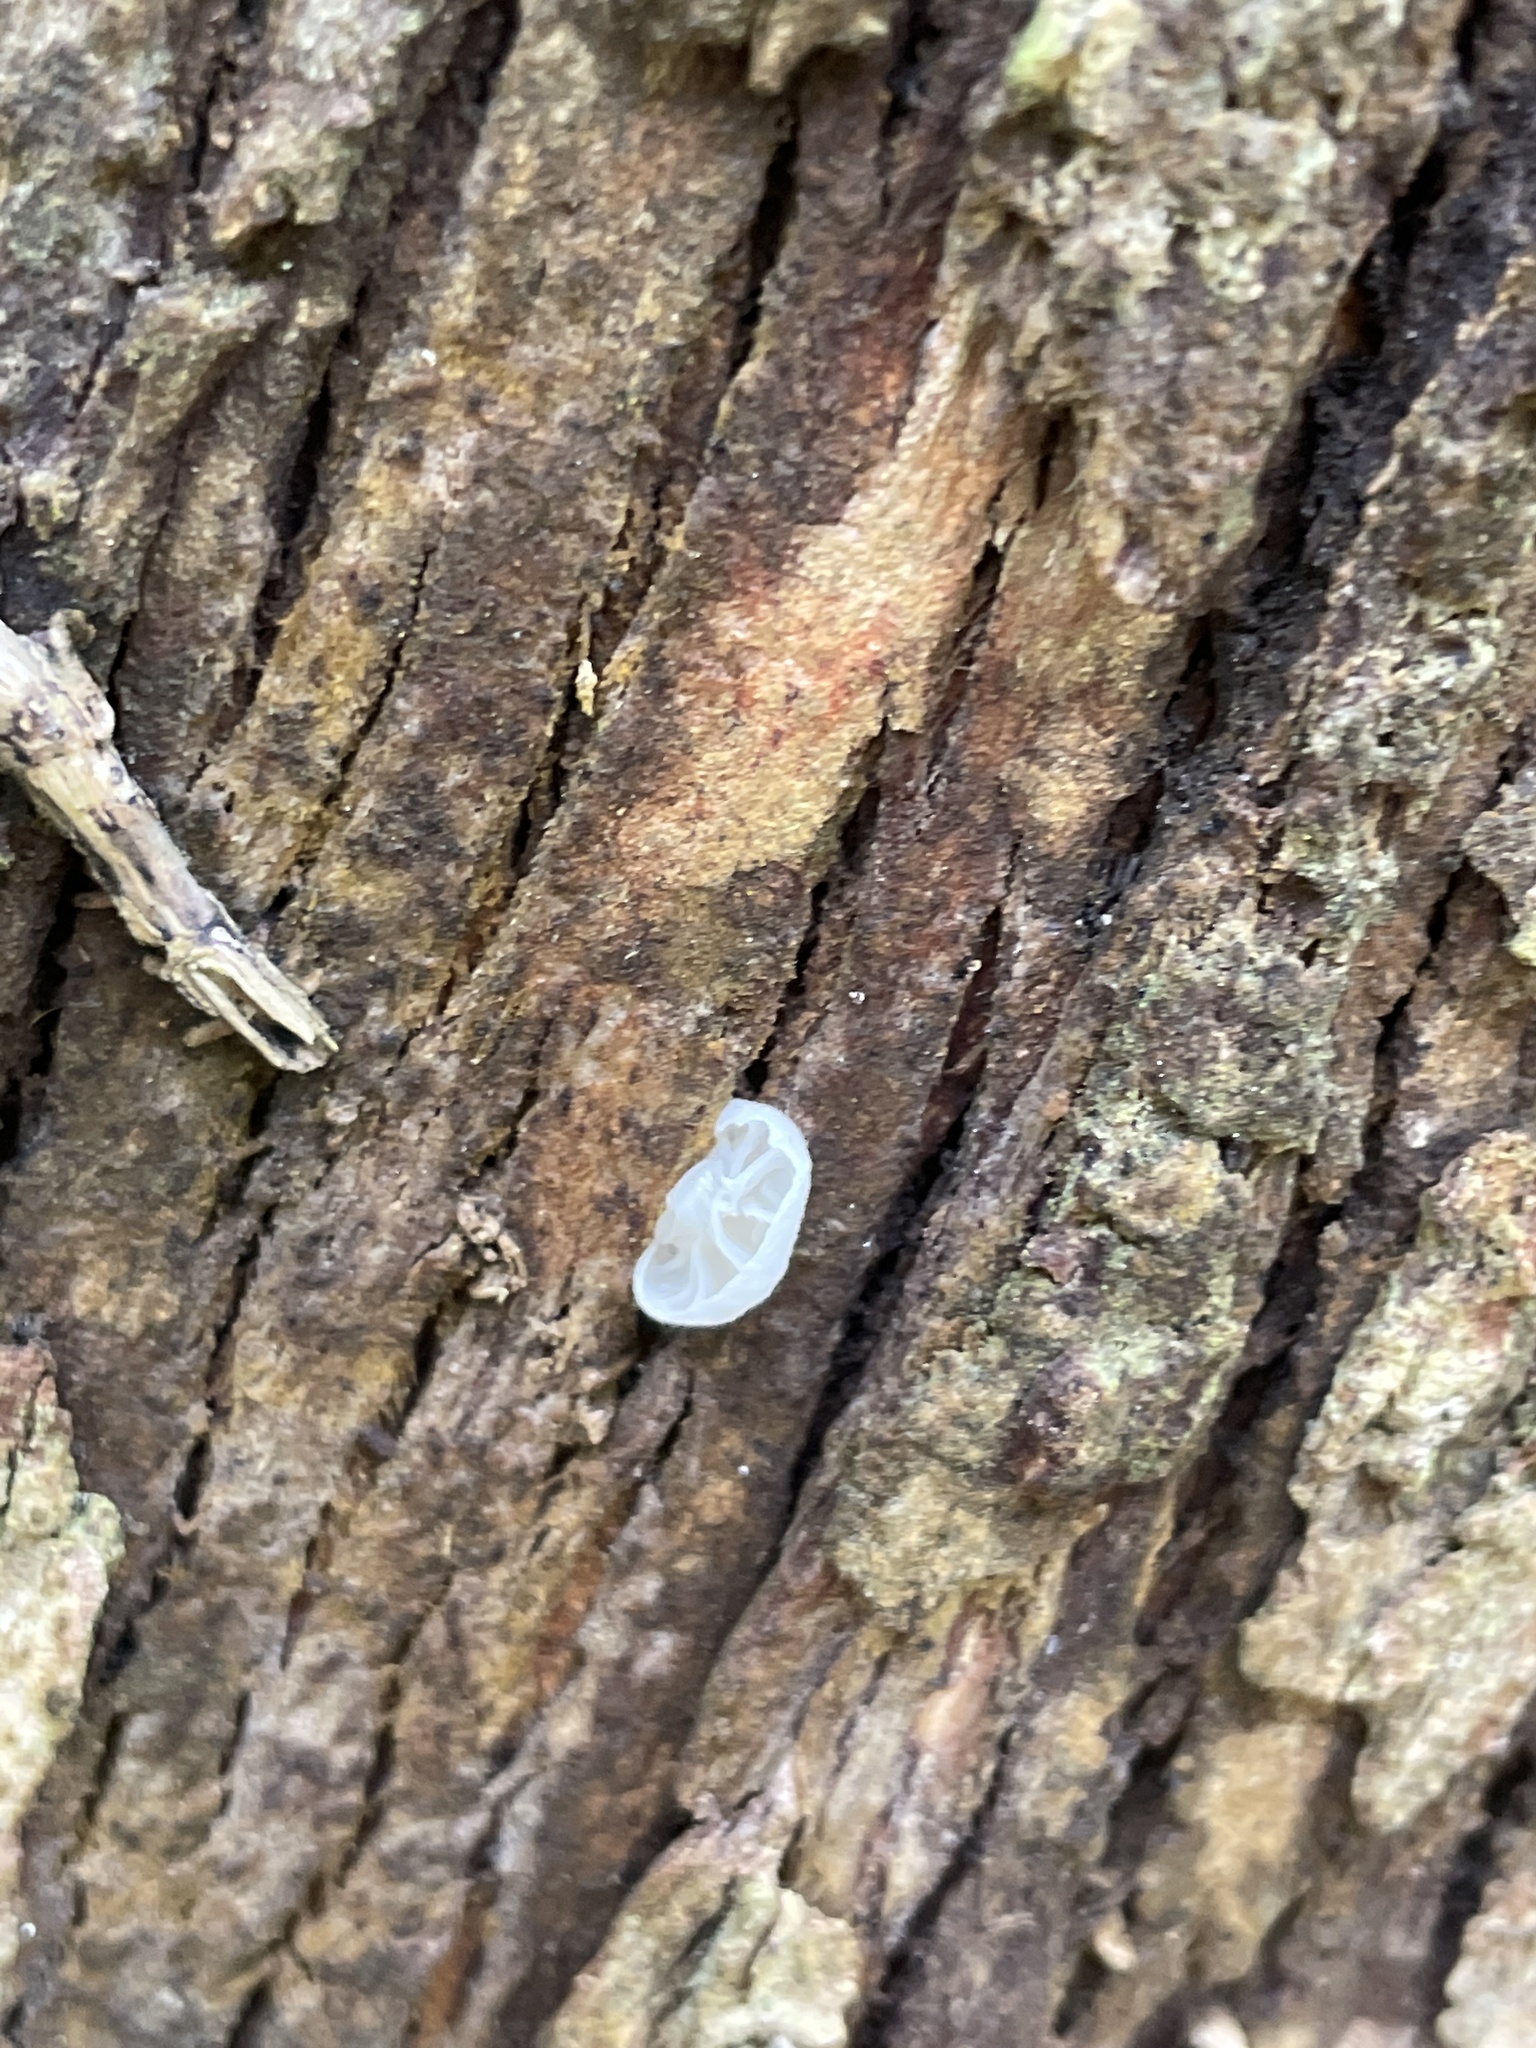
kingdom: Fungi
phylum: Basidiomycota
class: Agaricomycetes
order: Agaricales
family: Omphalotaceae
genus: Marasmiellus
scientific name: Marasmiellus candidus
